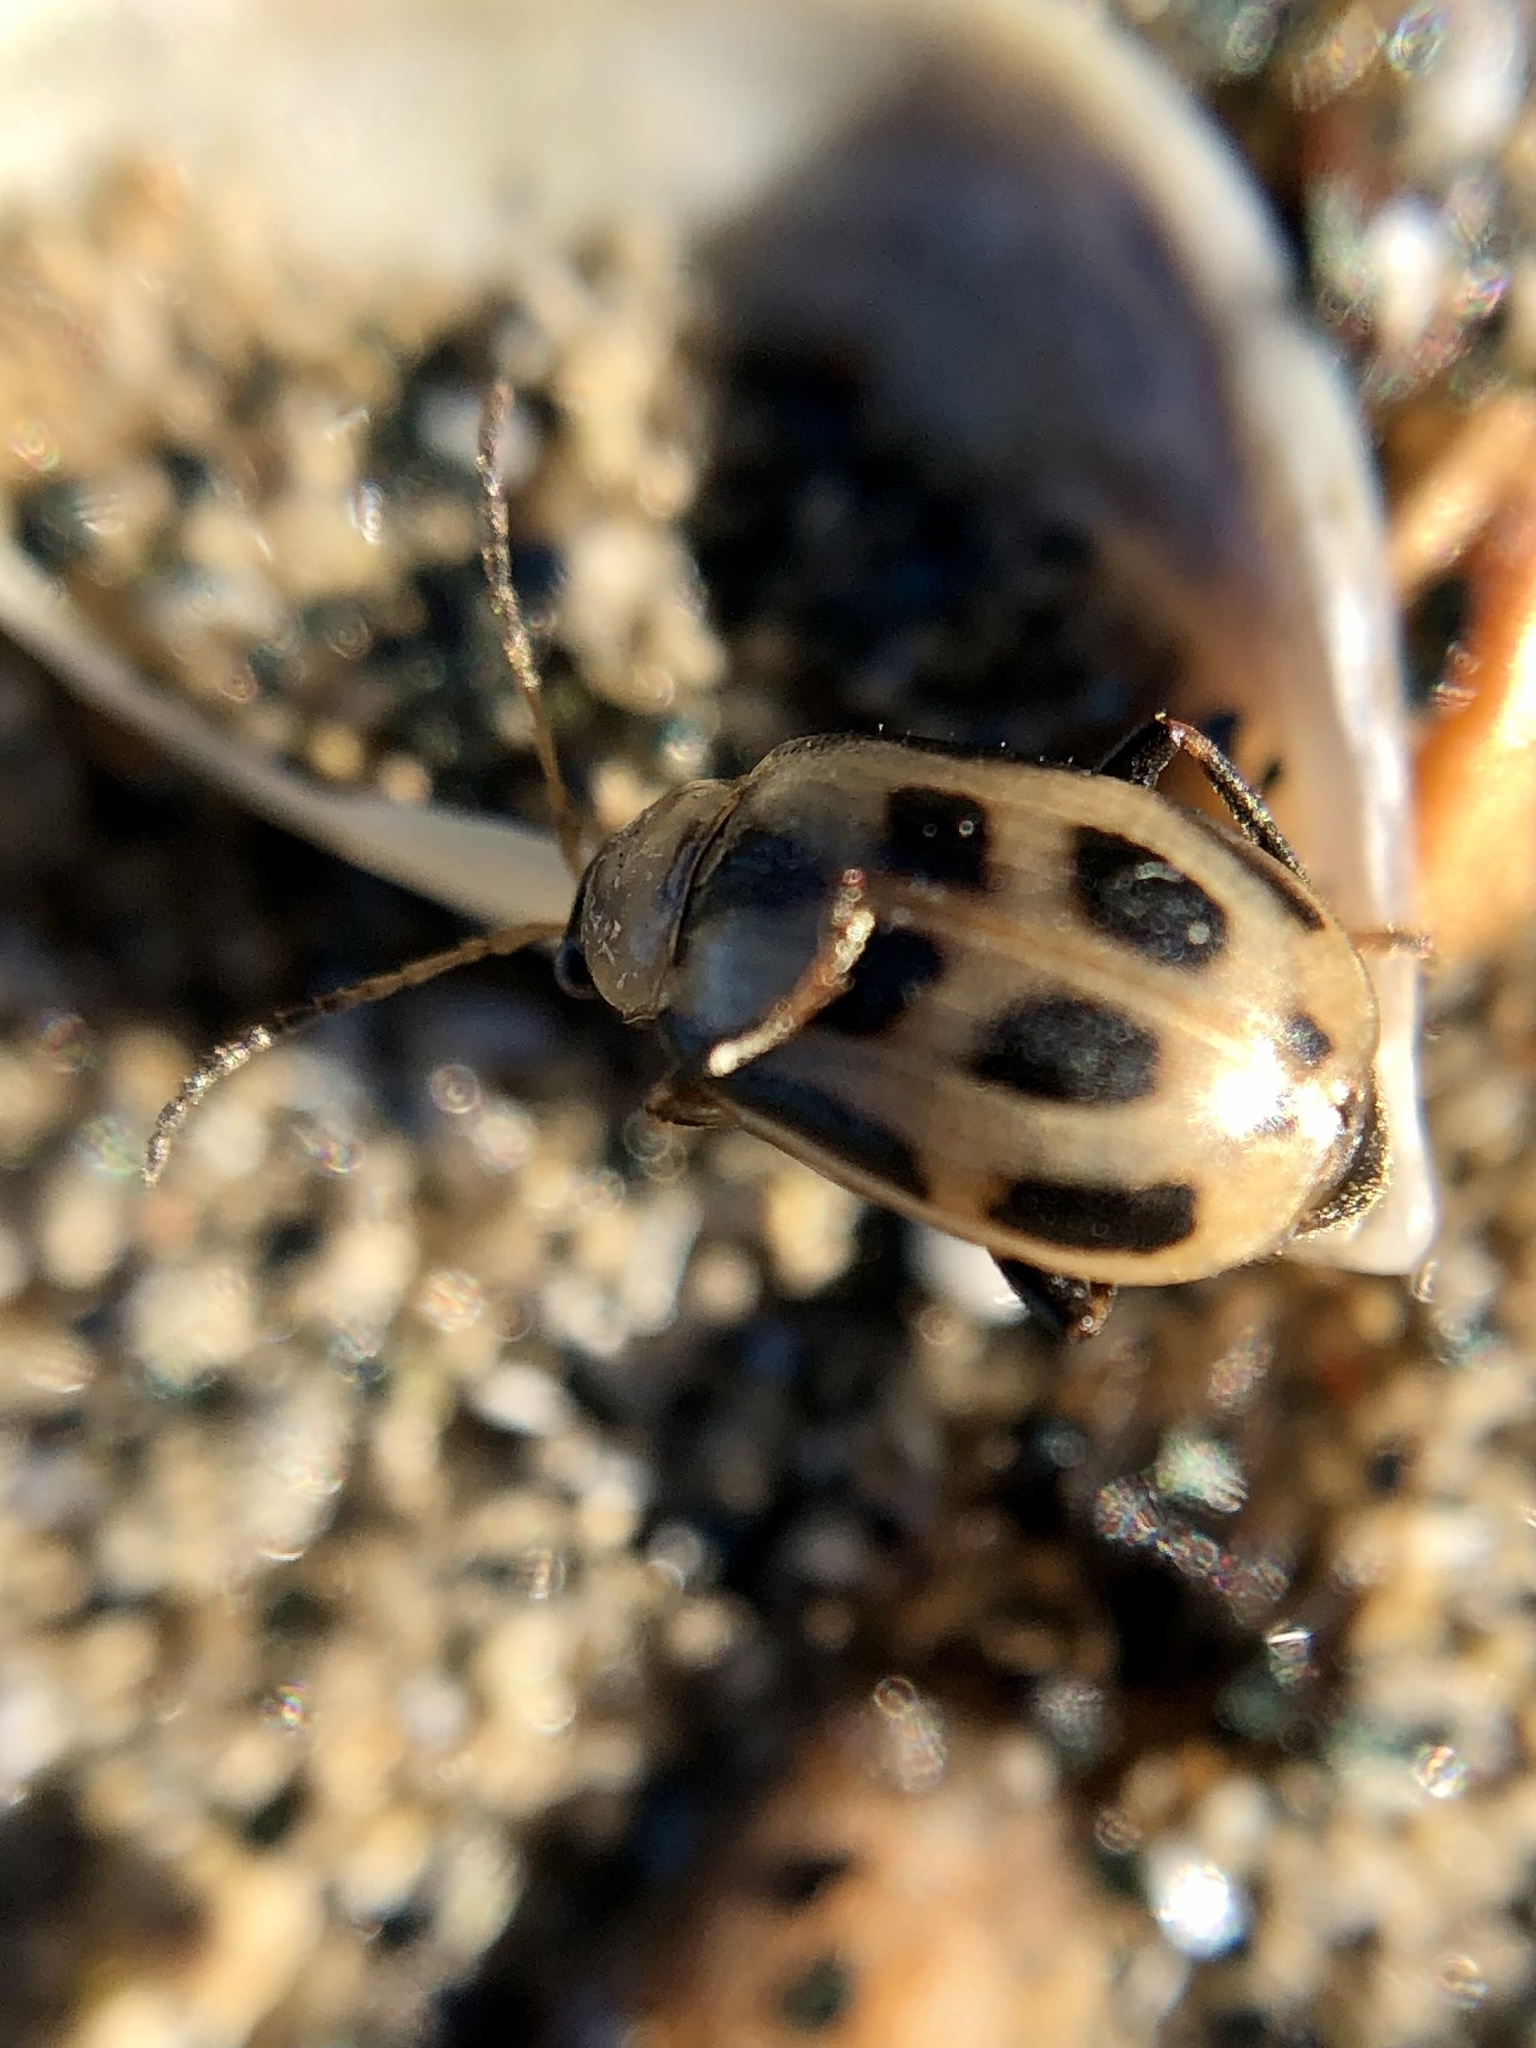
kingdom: Animalia
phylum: Arthropoda
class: Insecta
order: Coleoptera
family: Chrysomelidae
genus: Cerotoma
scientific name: Cerotoma trifurcata
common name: Bean leaf beetle
